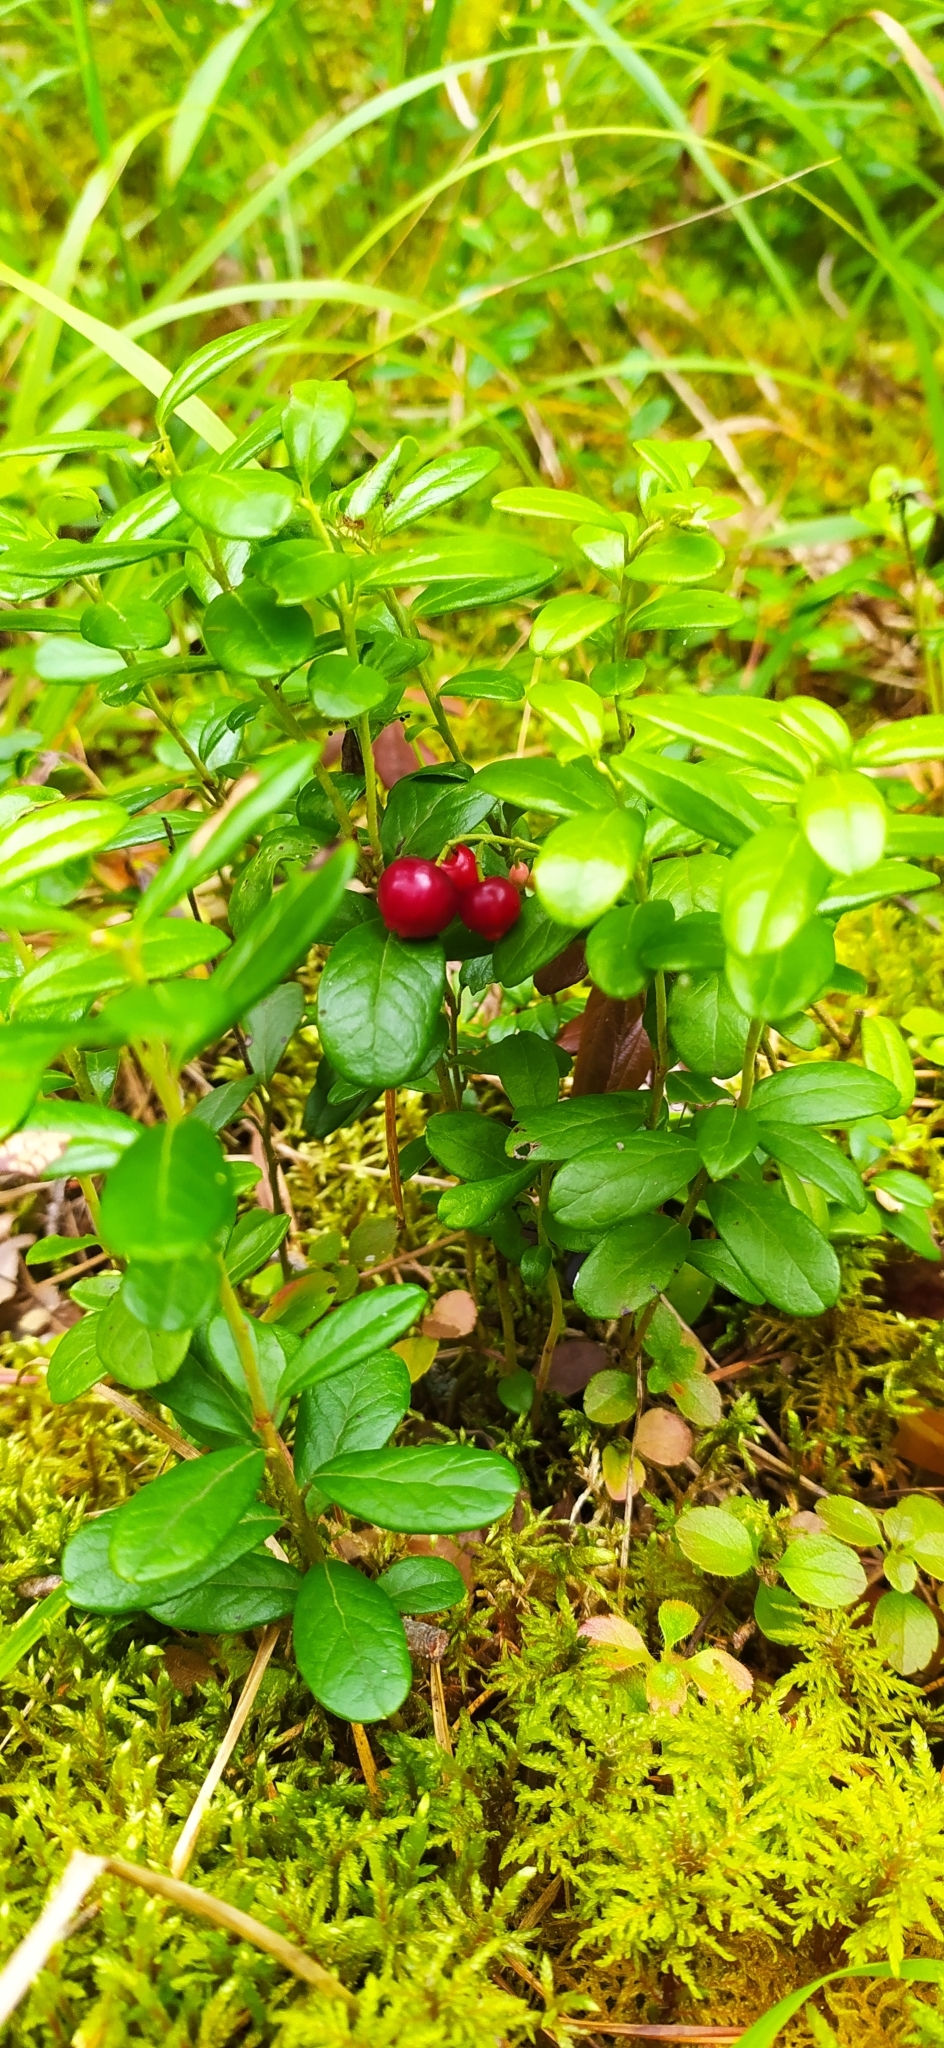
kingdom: Plantae
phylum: Tracheophyta
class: Magnoliopsida
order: Ericales
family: Ericaceae
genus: Vaccinium
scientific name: Vaccinium vitis-idaea
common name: Cowberry
